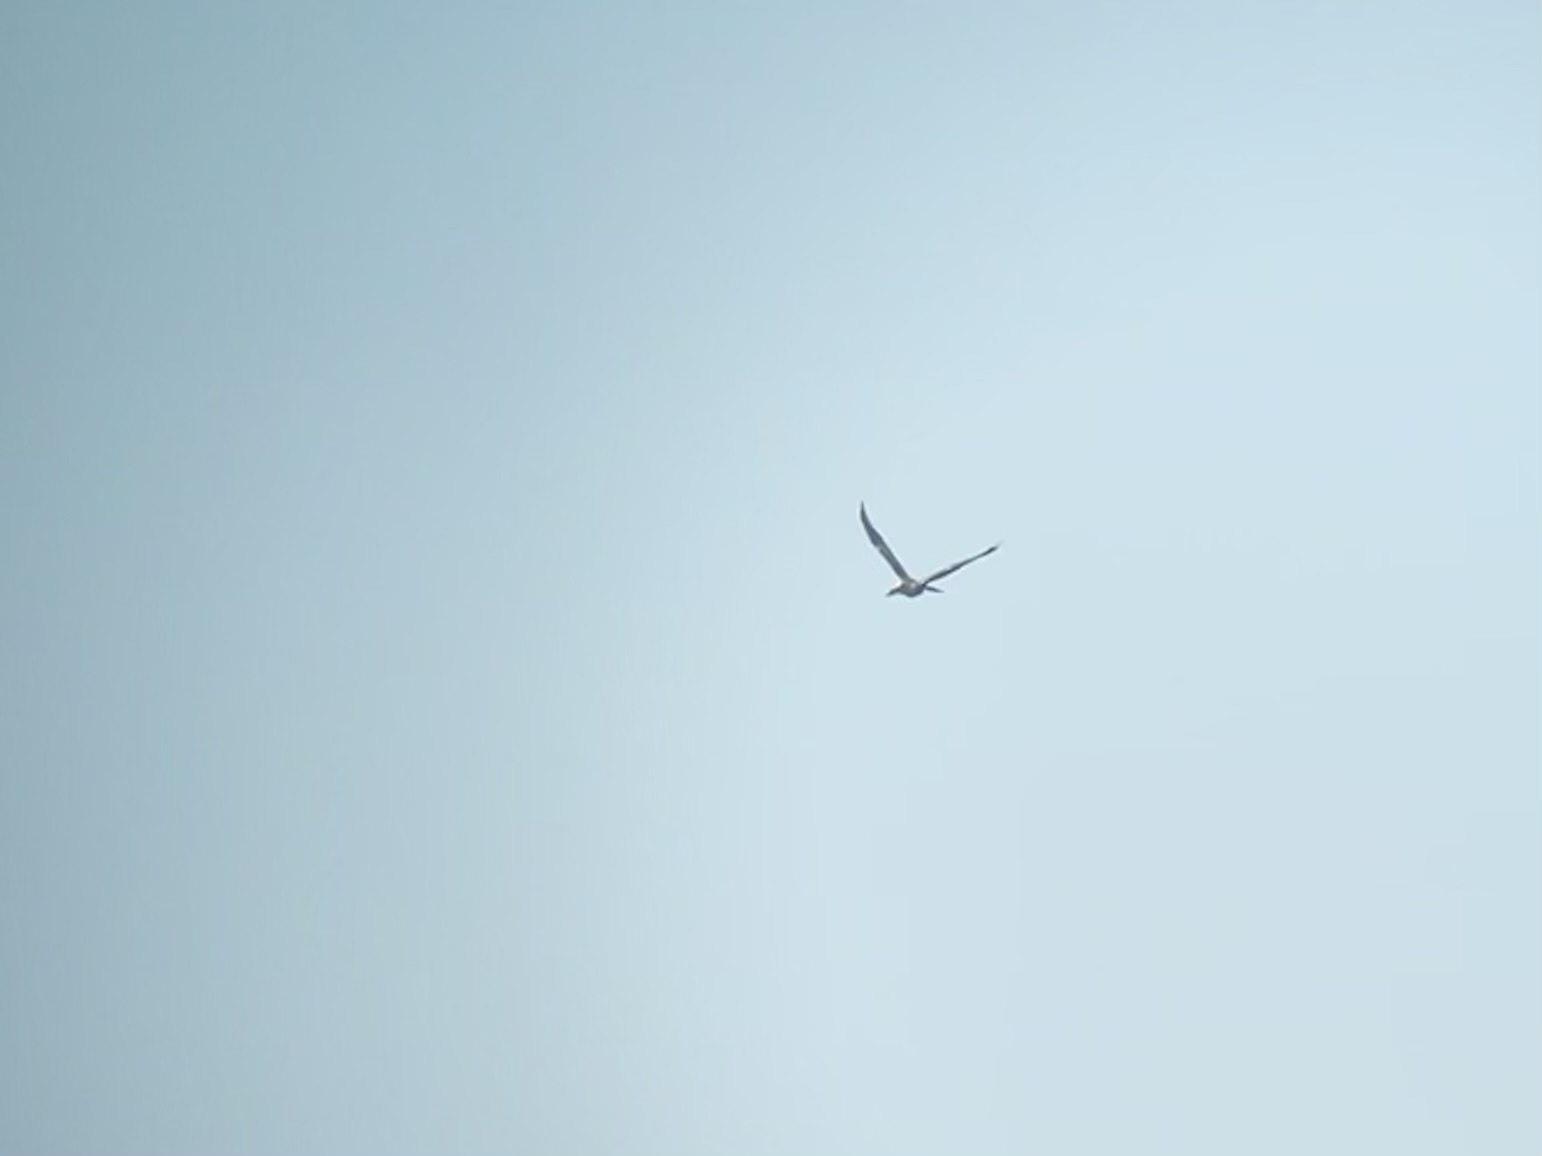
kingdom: Animalia
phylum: Chordata
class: Aves
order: Suliformes
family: Anhingidae
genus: Anhinga
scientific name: Anhinga anhinga
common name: Anhinga
